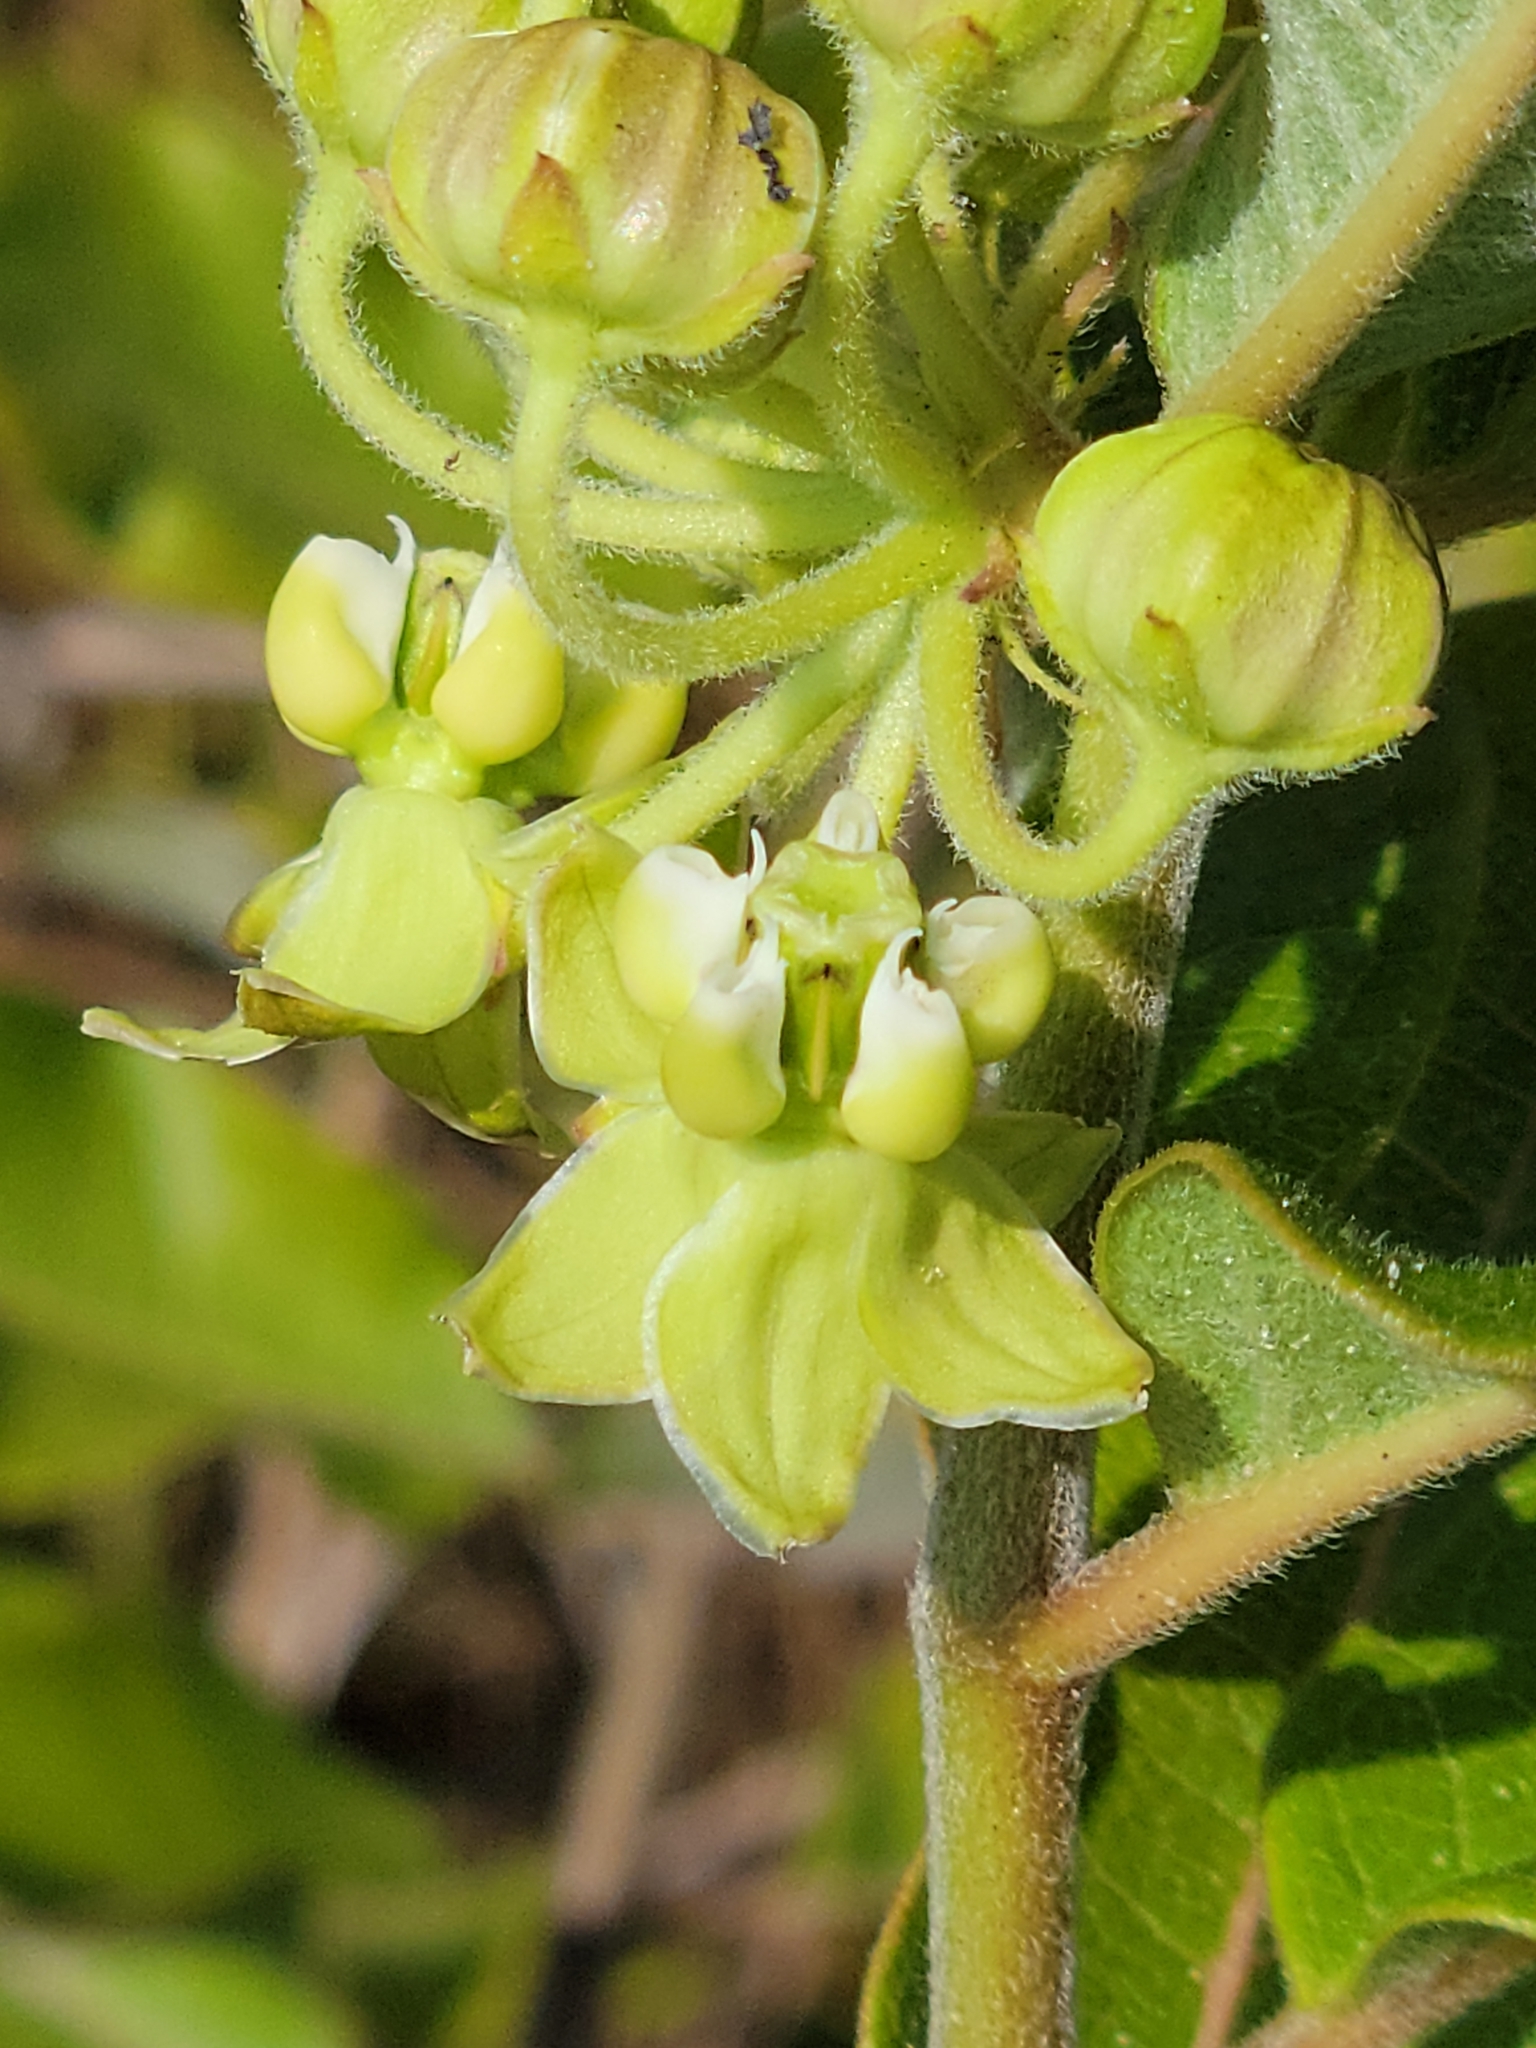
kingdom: Plantae
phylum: Tracheophyta
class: Magnoliopsida
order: Gentianales
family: Apocynaceae
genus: Asclepias
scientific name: Asclepias tomentosa
